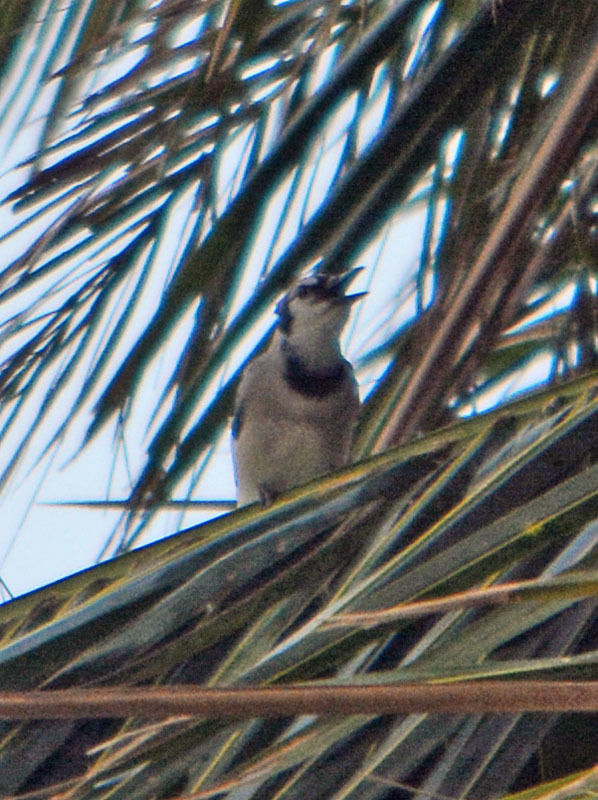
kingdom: Animalia
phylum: Chordata
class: Aves
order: Passeriformes
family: Corvidae
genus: Cyanocitta
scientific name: Cyanocitta cristata
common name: Blue jay
